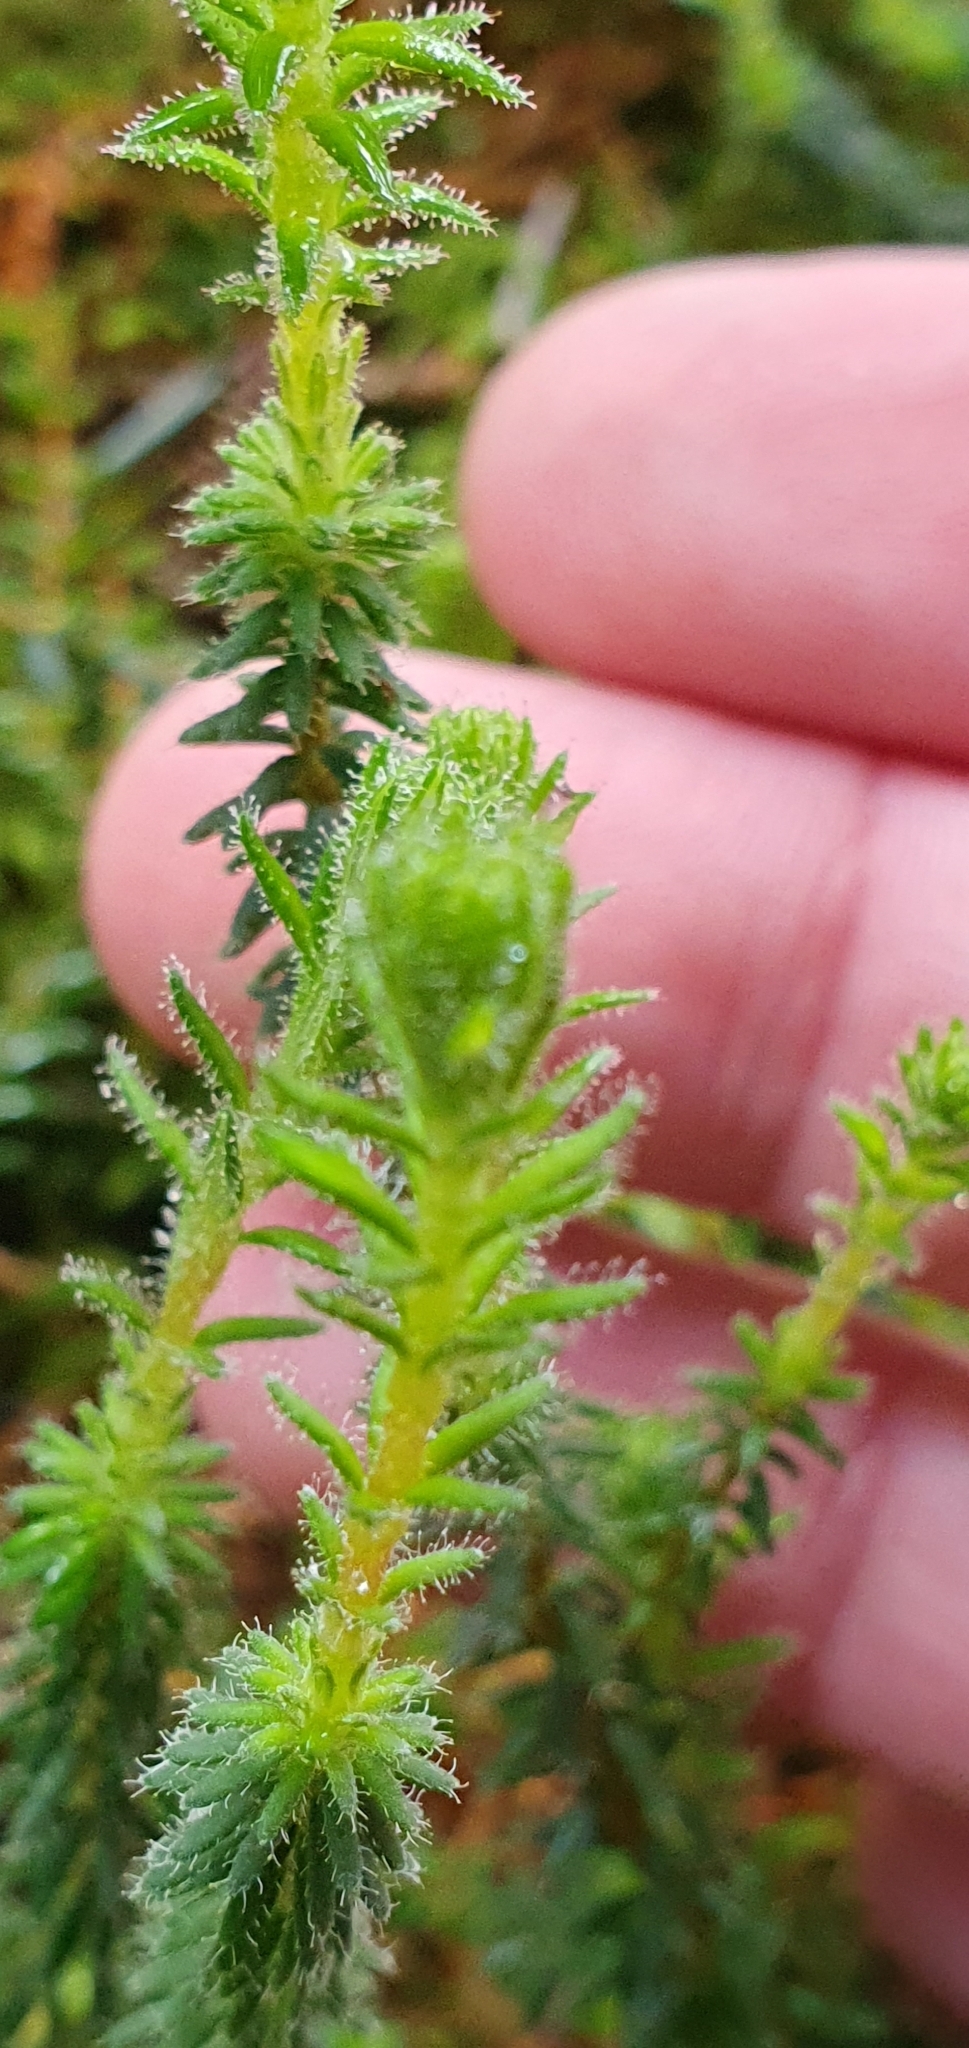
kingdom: Plantae
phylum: Tracheophyta
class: Magnoliopsida
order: Ericales
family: Ericaceae
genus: Erica
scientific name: Erica tetralix
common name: Cross-leaved heath
